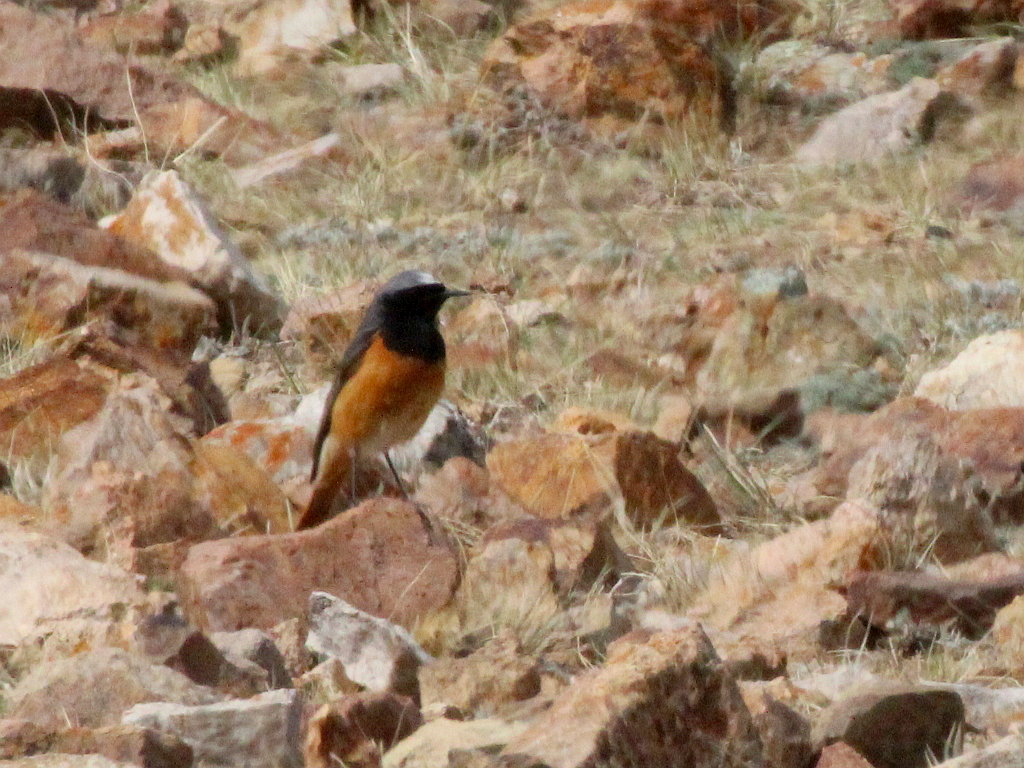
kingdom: Animalia
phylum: Chordata
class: Aves
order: Passeriformes
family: Muscicapidae
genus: Phoenicurus
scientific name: Phoenicurus ochruros
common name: Black redstart
